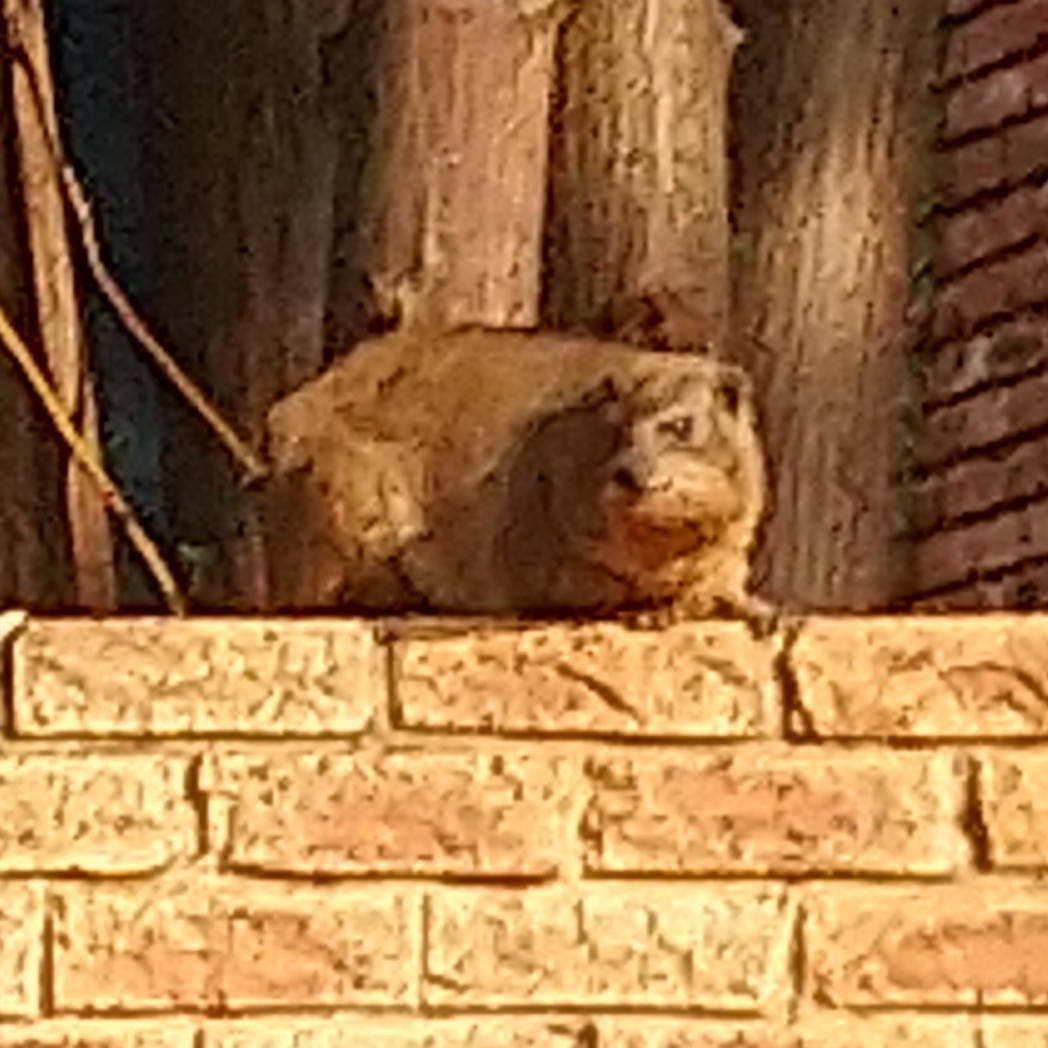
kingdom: Animalia
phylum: Chordata
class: Mammalia
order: Hyracoidea
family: Procaviidae
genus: Procavia
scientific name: Procavia capensis
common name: Rock hyrax
